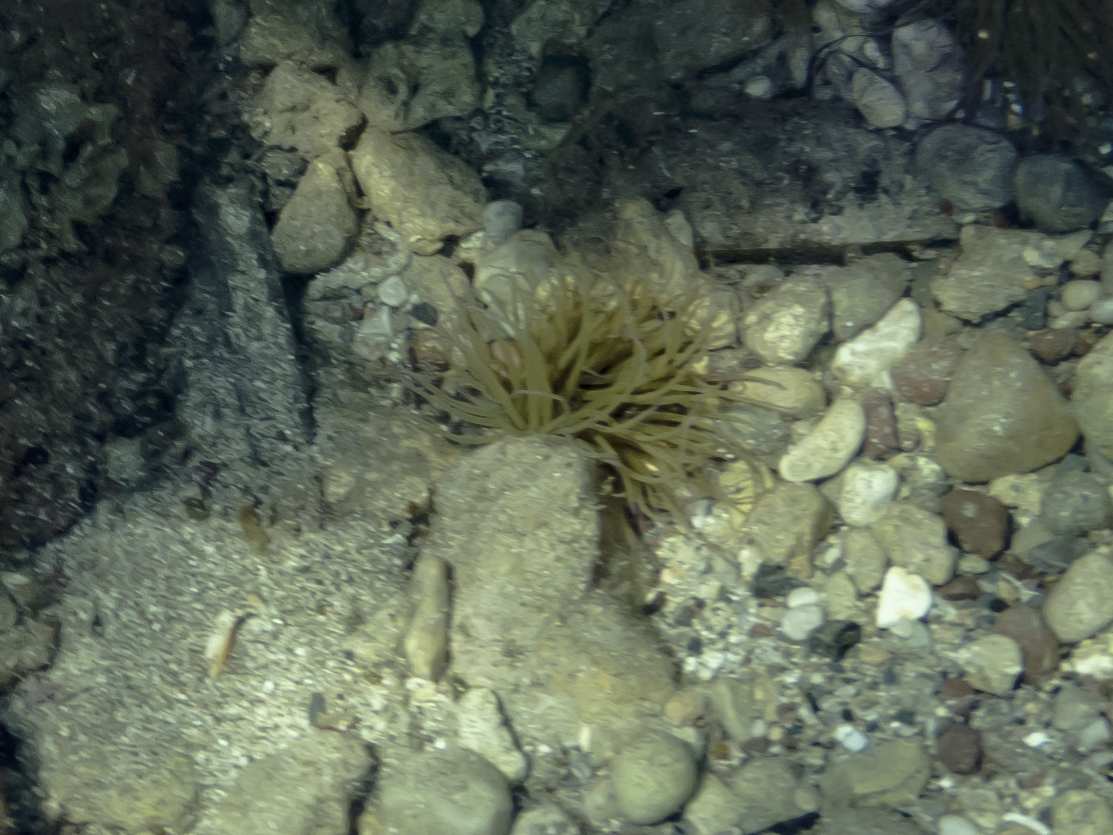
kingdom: Animalia
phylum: Cnidaria
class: Anthozoa
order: Actiniaria
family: Actiniidae
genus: Anemonia
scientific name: Anemonia viridis
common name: Snakelocks anemone
